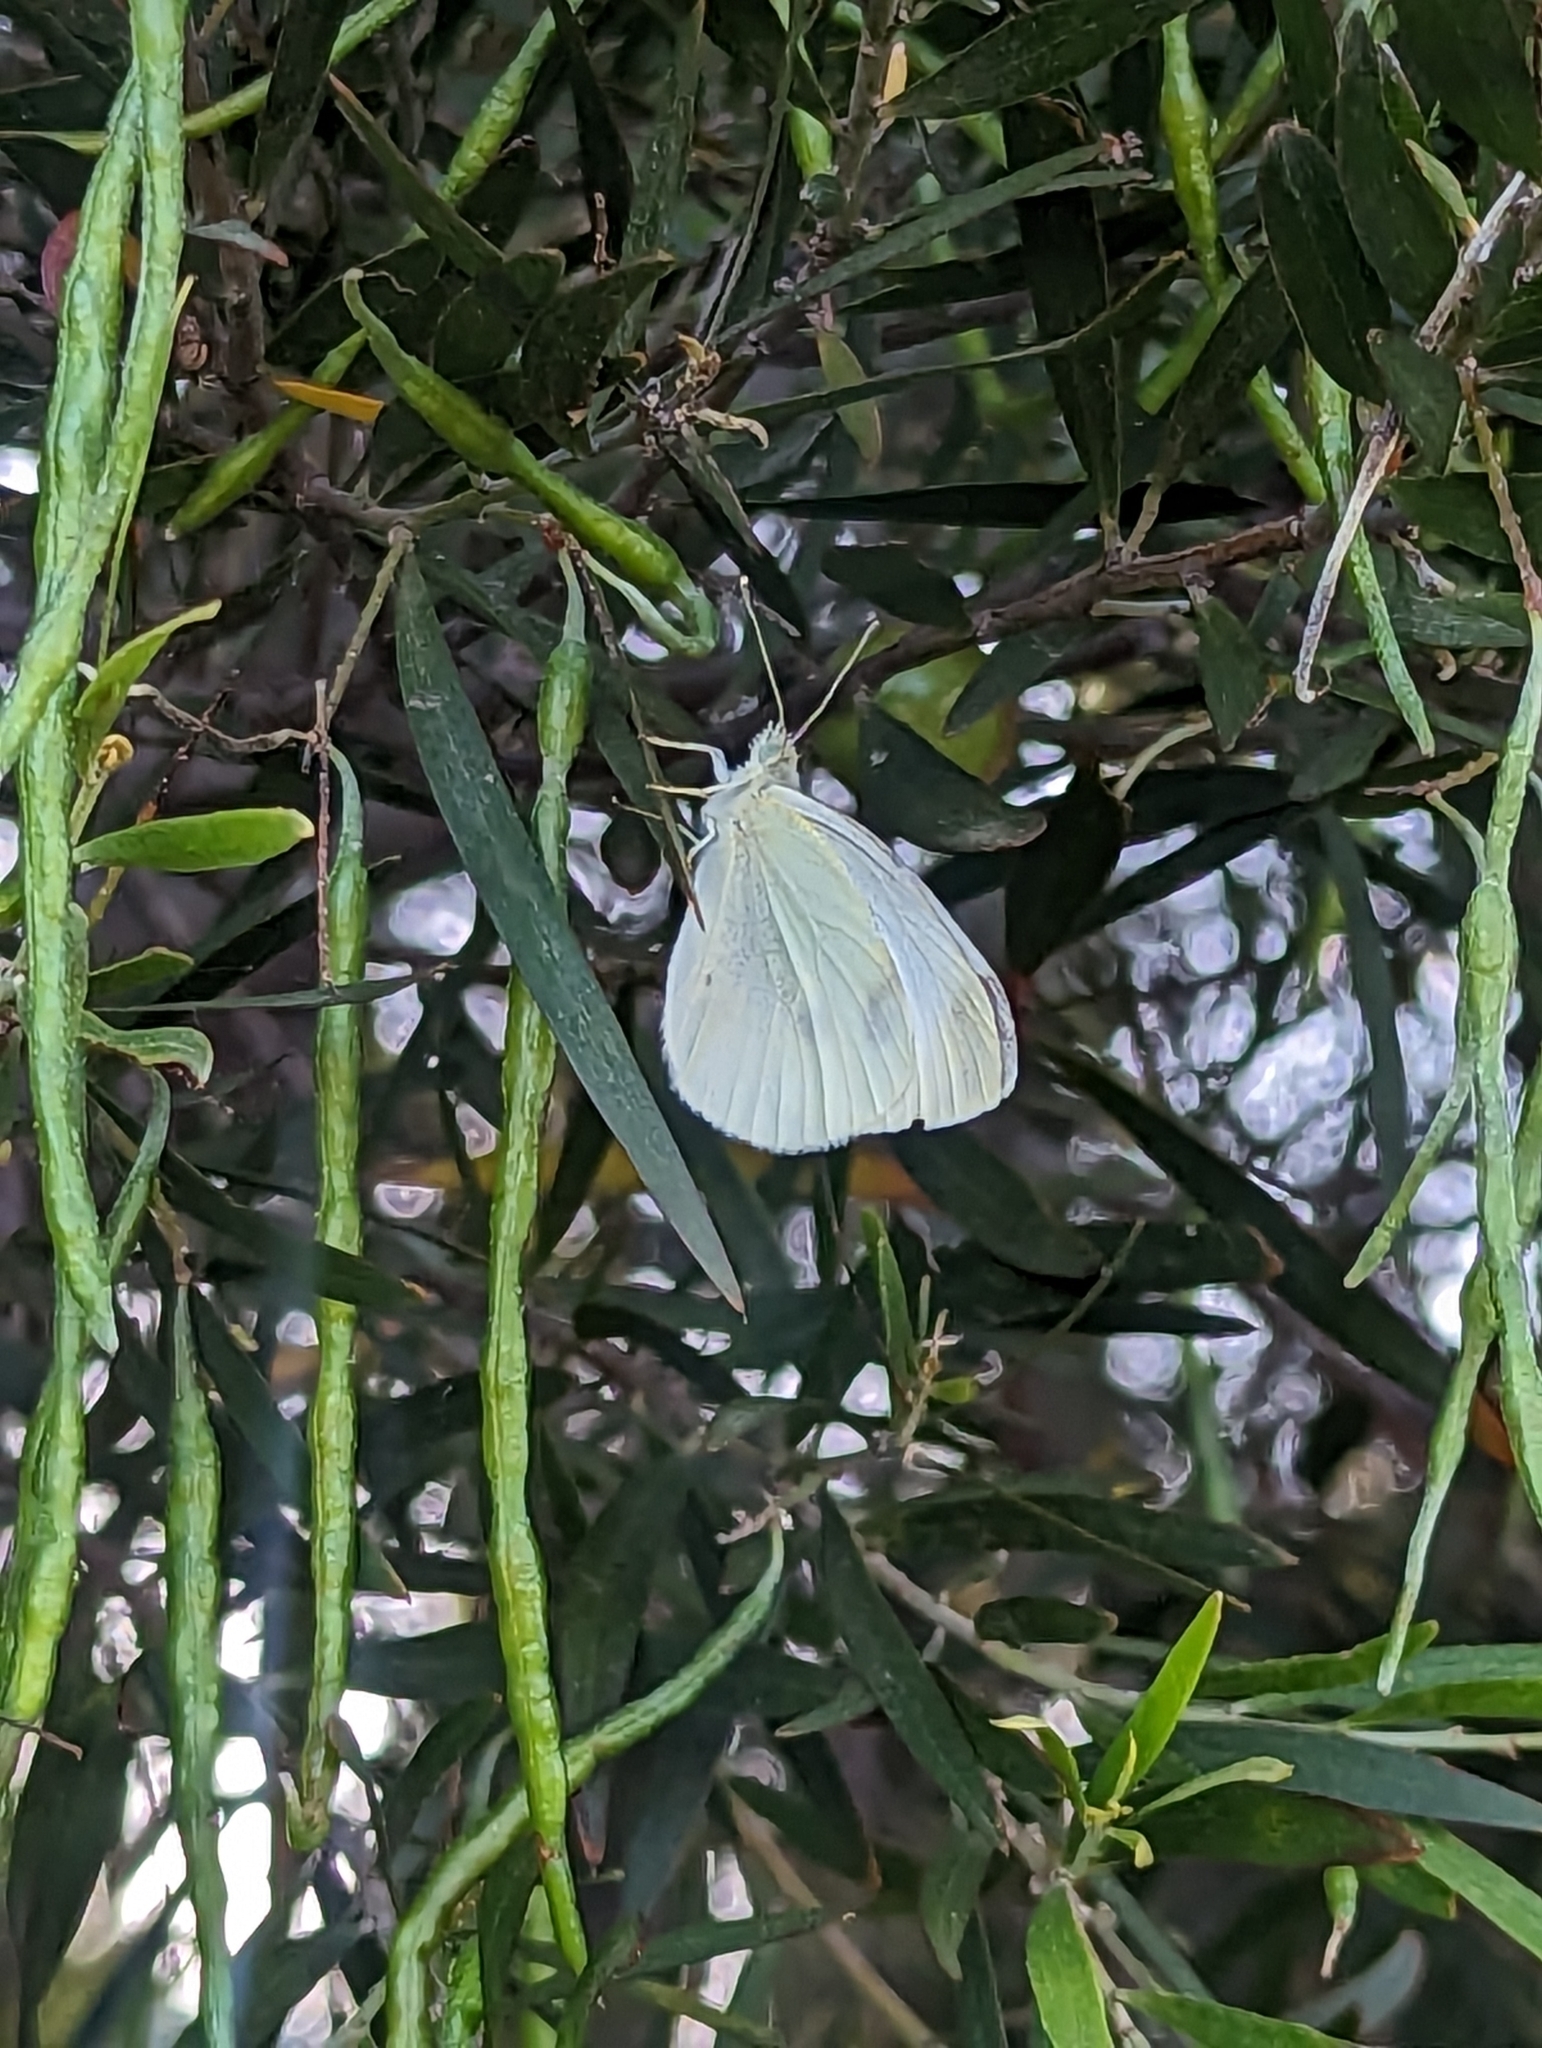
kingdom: Animalia
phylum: Arthropoda
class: Insecta
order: Lepidoptera
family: Pieridae
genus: Pieris
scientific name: Pieris rapae
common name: Small white
